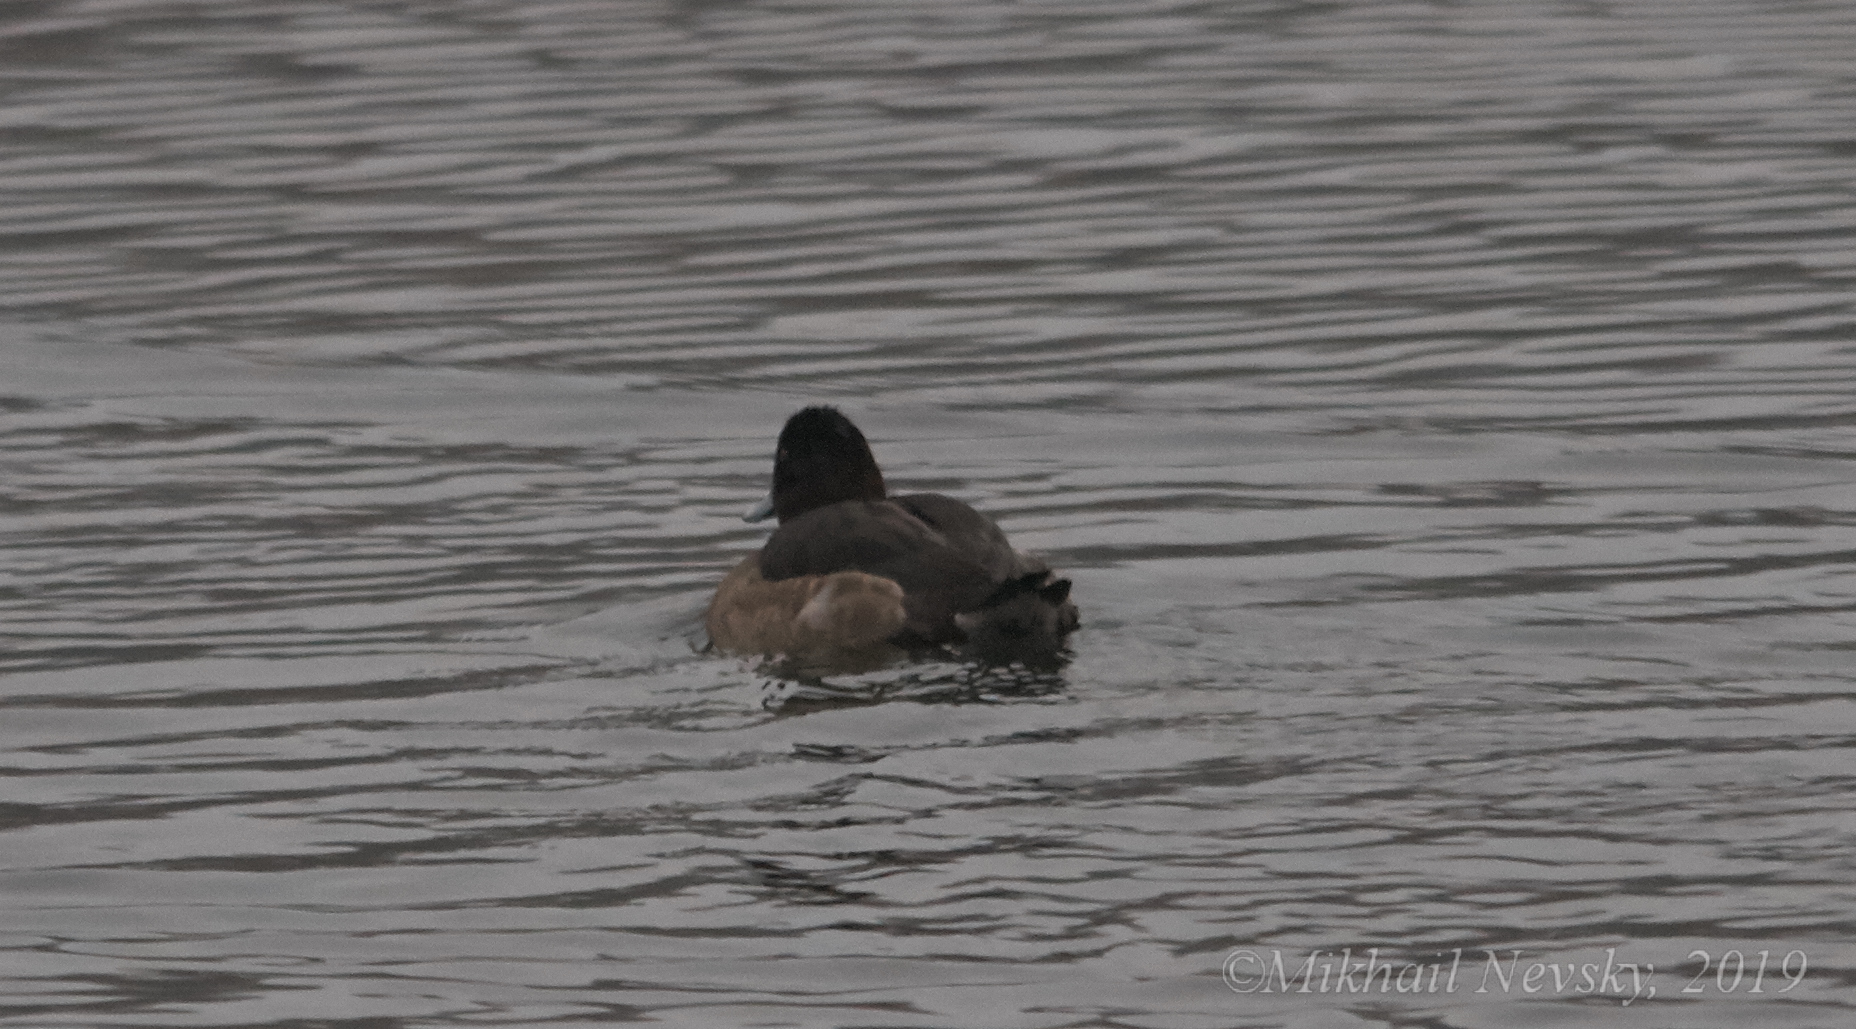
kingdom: Animalia
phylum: Chordata
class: Aves
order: Anseriformes
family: Anatidae
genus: Aythya
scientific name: Aythya fuligula
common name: Tufted duck
